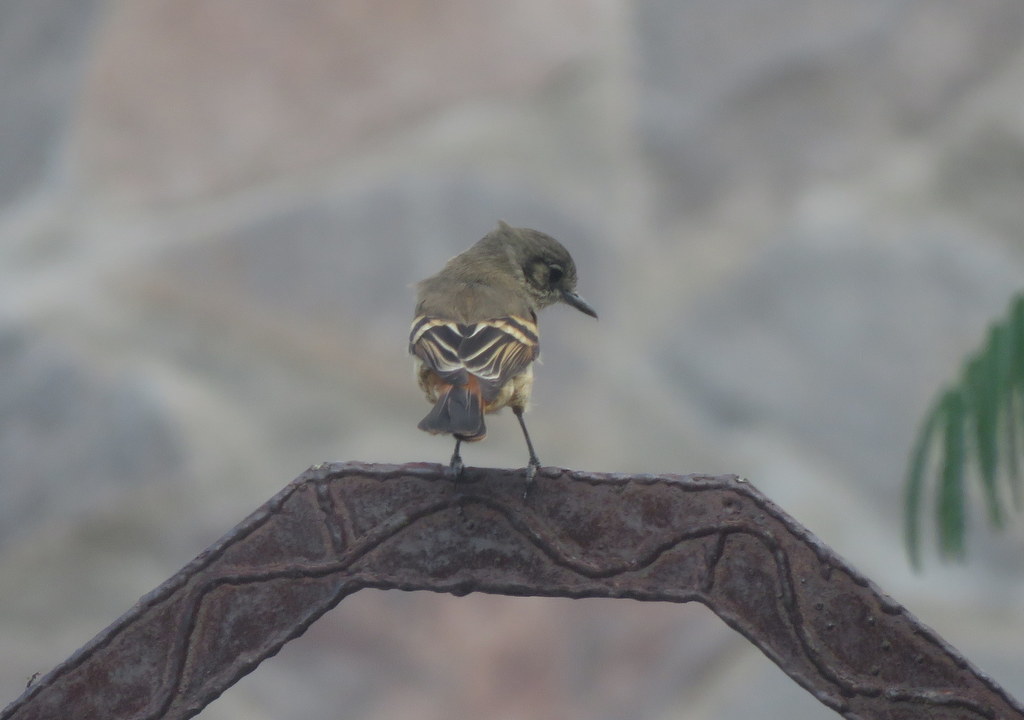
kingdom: Animalia
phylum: Chordata
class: Aves
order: Passeriformes
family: Tyrannidae
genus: Knipolegus
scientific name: Knipolegus aterrimus
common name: White-winged black tyrant
